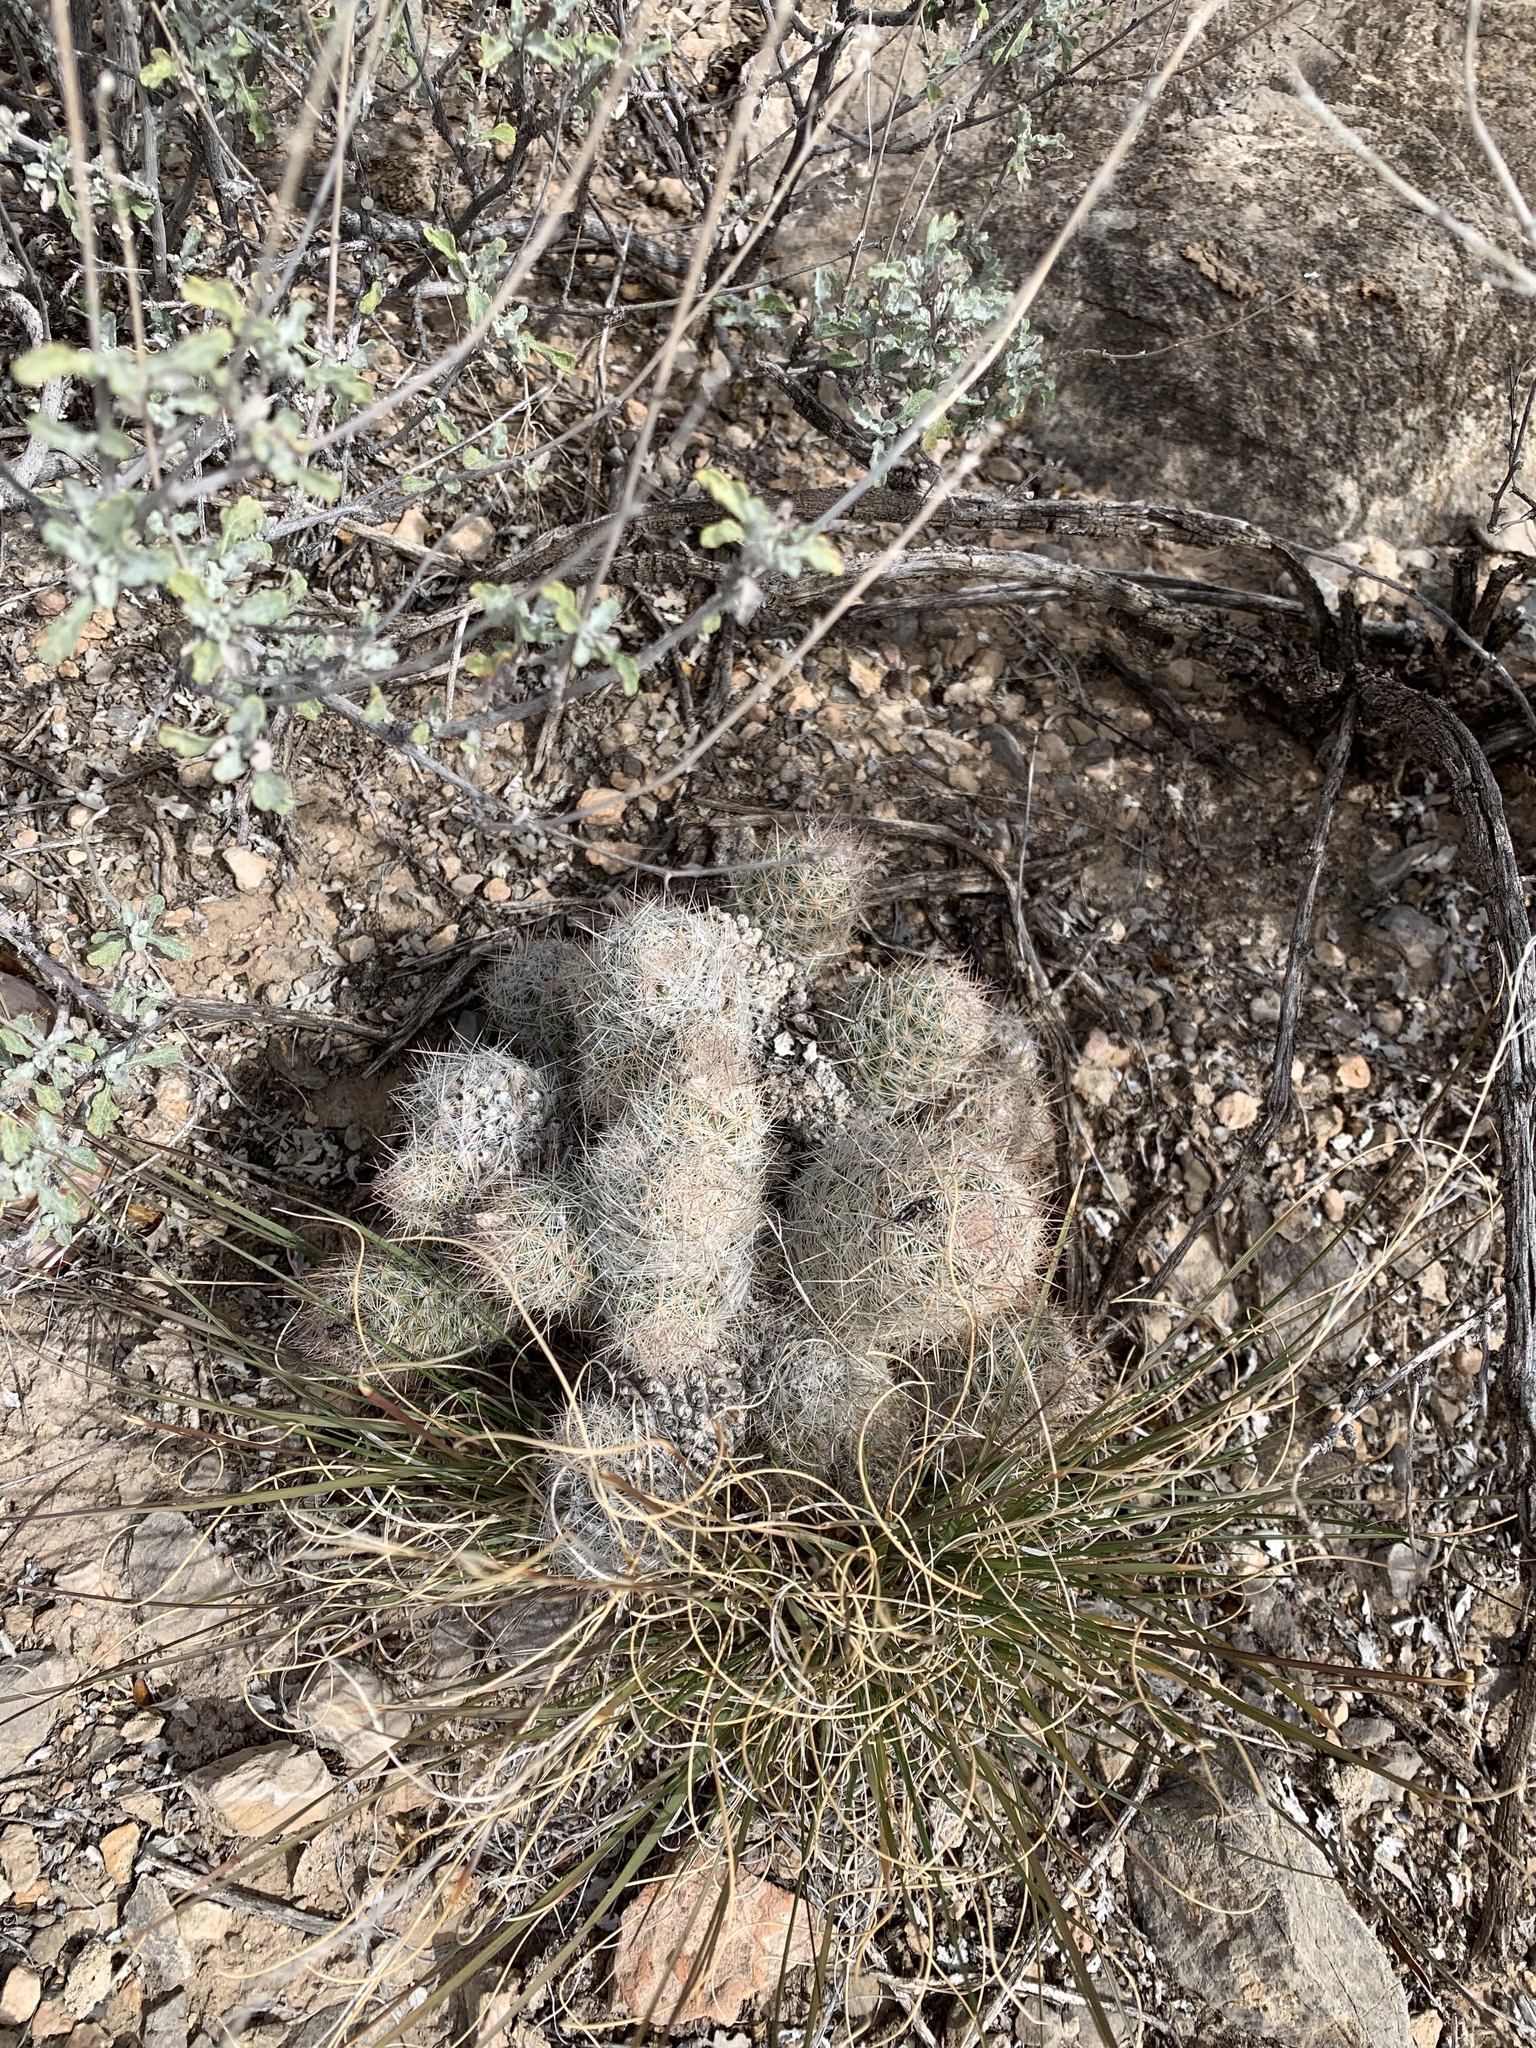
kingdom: Plantae
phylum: Tracheophyta
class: Magnoliopsida
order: Caryophyllales
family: Cactaceae
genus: Pelecyphora
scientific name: Pelecyphora tuberculosa
